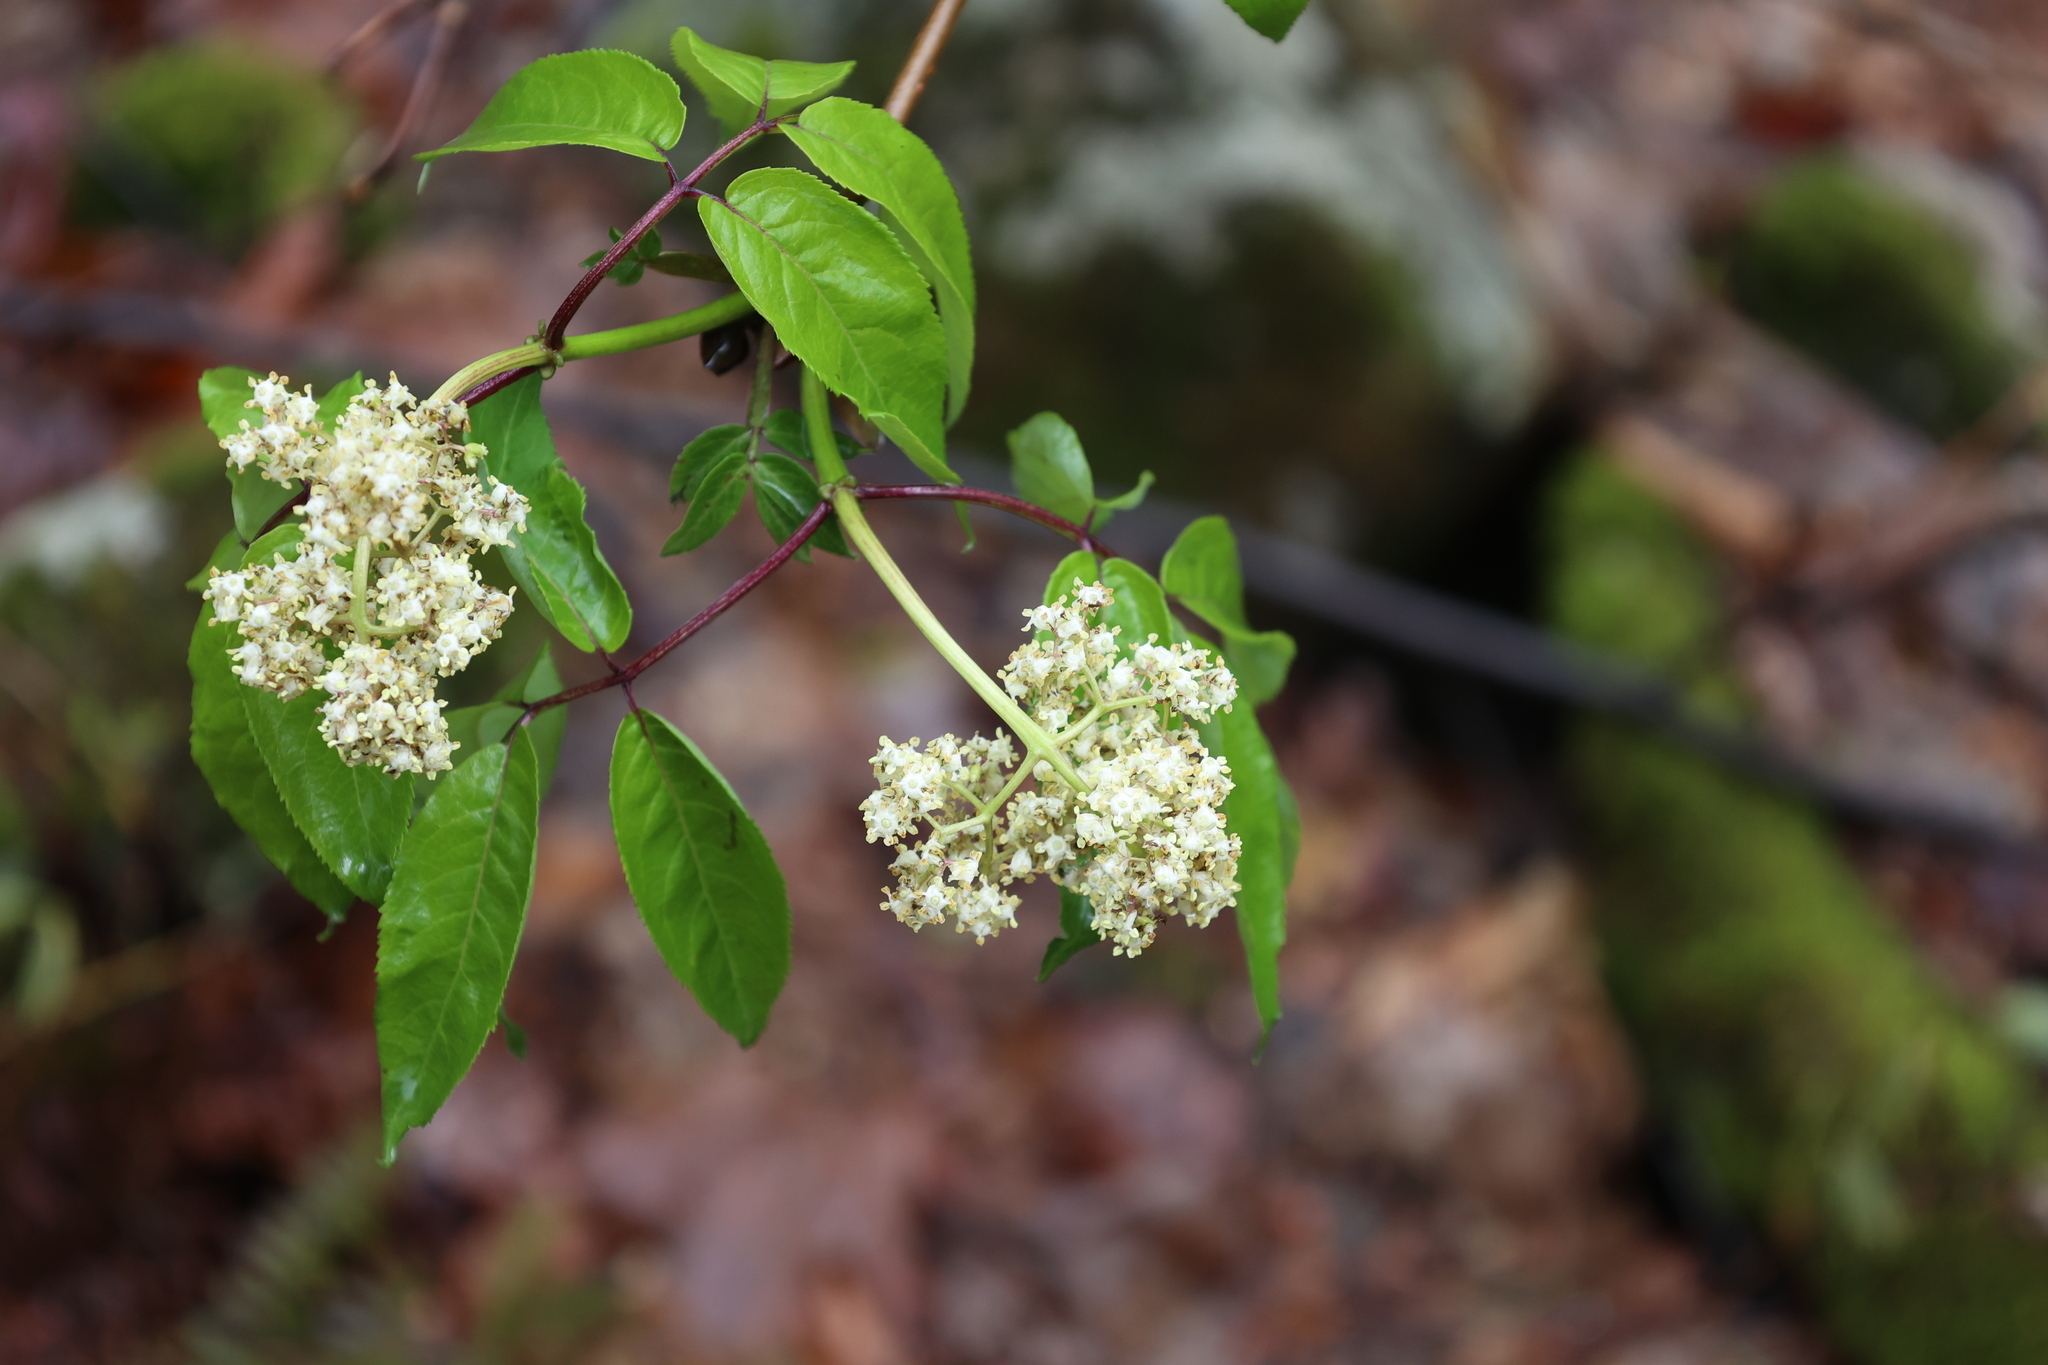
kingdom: Plantae
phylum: Tracheophyta
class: Magnoliopsida
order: Dipsacales
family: Viburnaceae
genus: Sambucus
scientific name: Sambucus racemosa
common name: Red-berried elder
